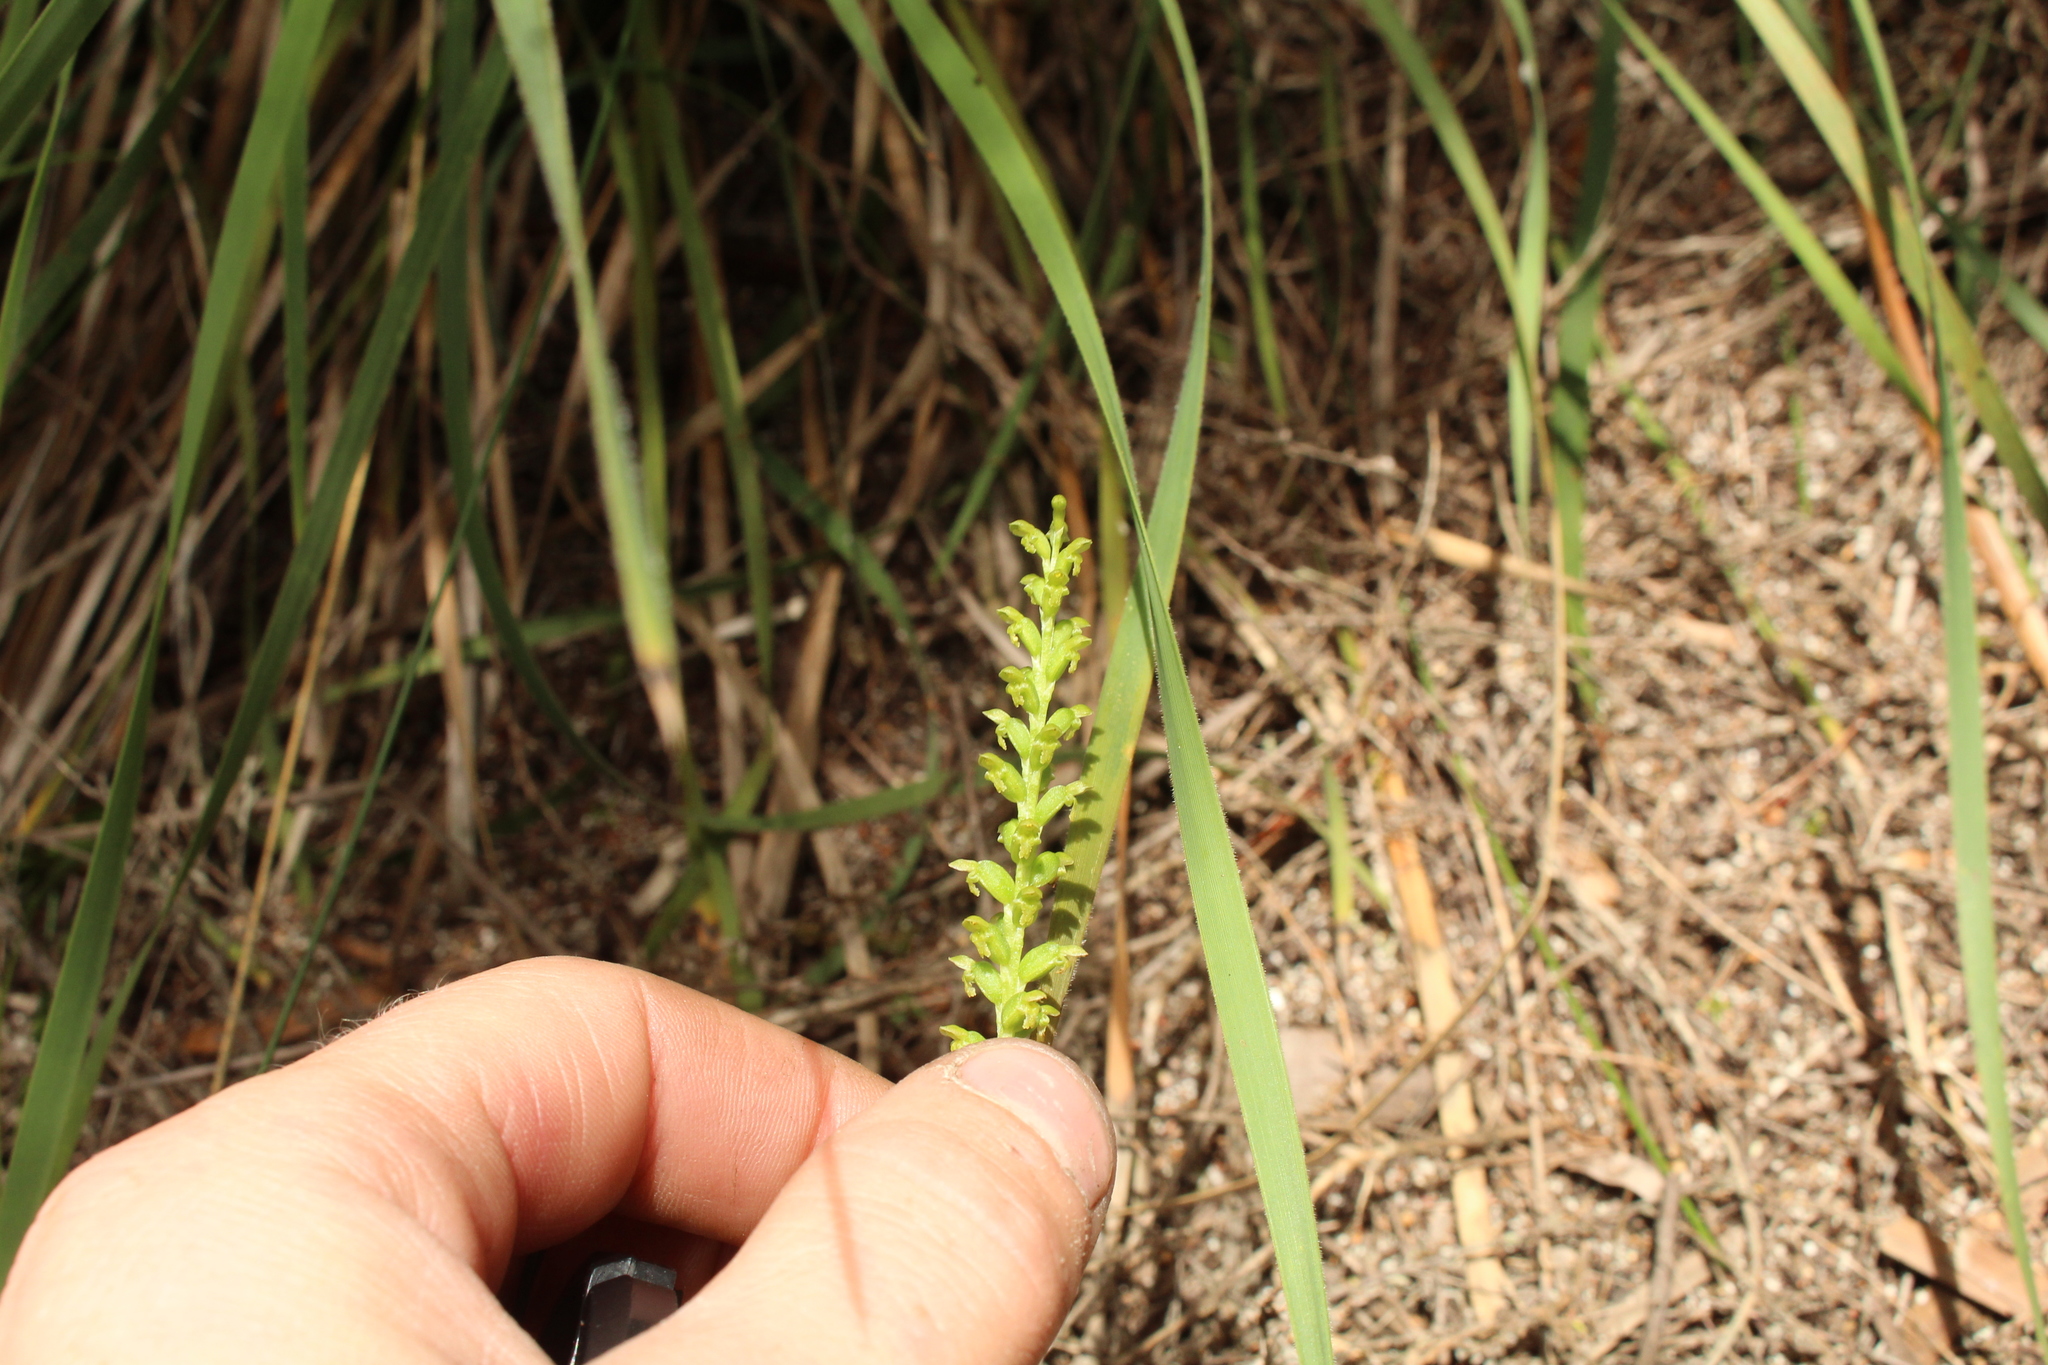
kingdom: Plantae
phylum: Tracheophyta
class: Liliopsida
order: Asparagales
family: Orchidaceae
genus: Microtis
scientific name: Microtis media
